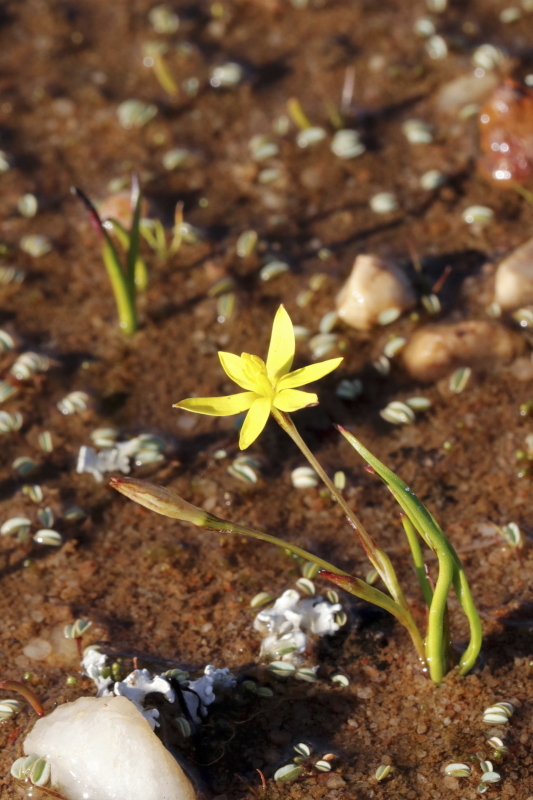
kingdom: Plantae
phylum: Tracheophyta
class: Liliopsida
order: Asparagales
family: Hypoxidaceae
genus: Pauridia
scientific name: Pauridia monticola
